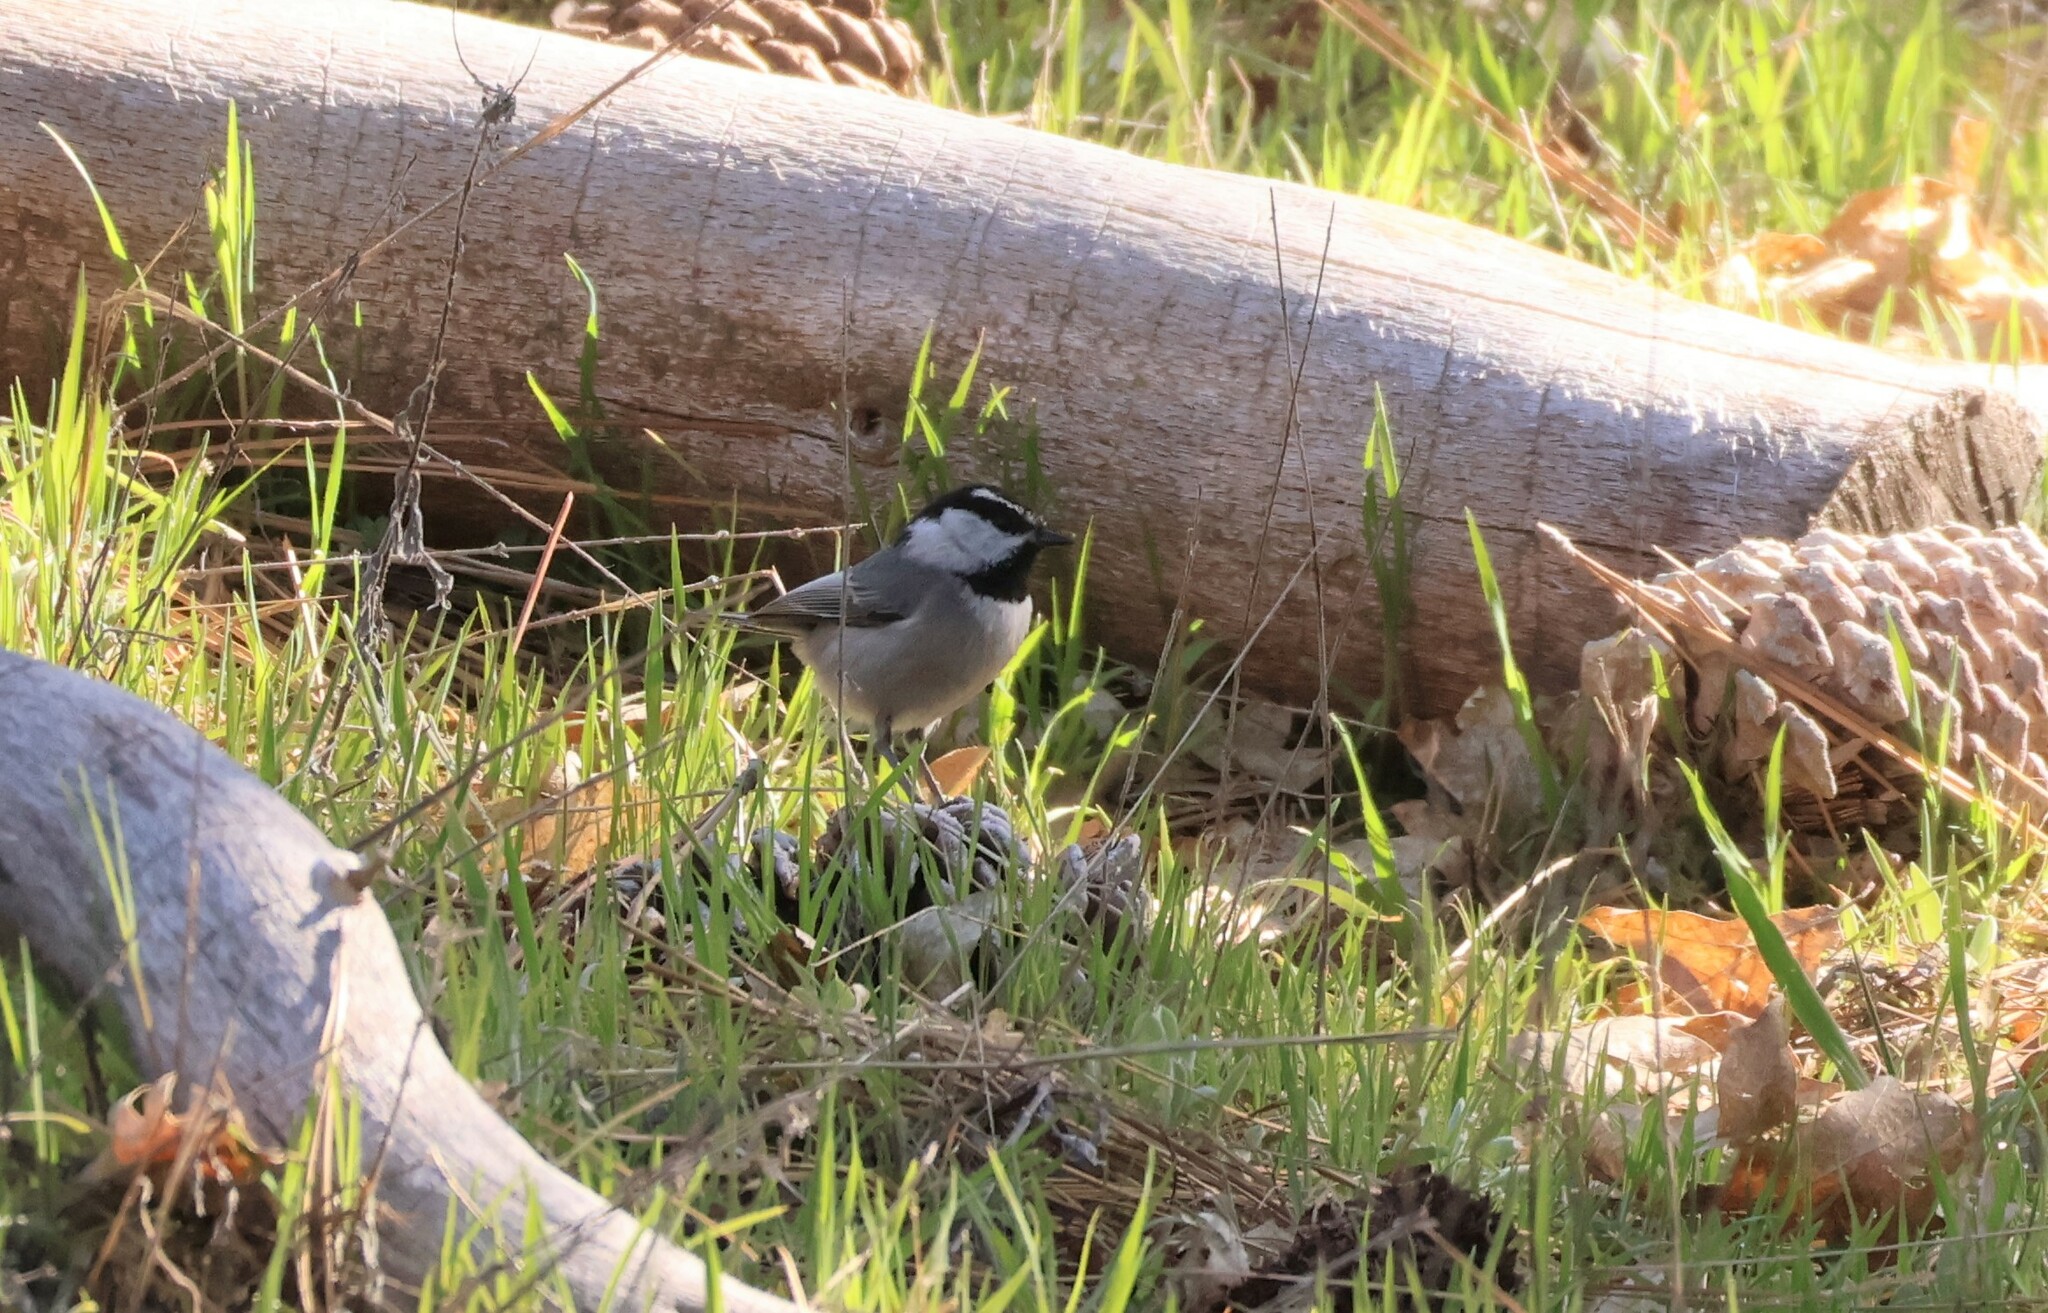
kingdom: Animalia
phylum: Chordata
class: Aves
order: Passeriformes
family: Paridae
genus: Poecile
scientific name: Poecile gambeli
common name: Mountain chickadee
